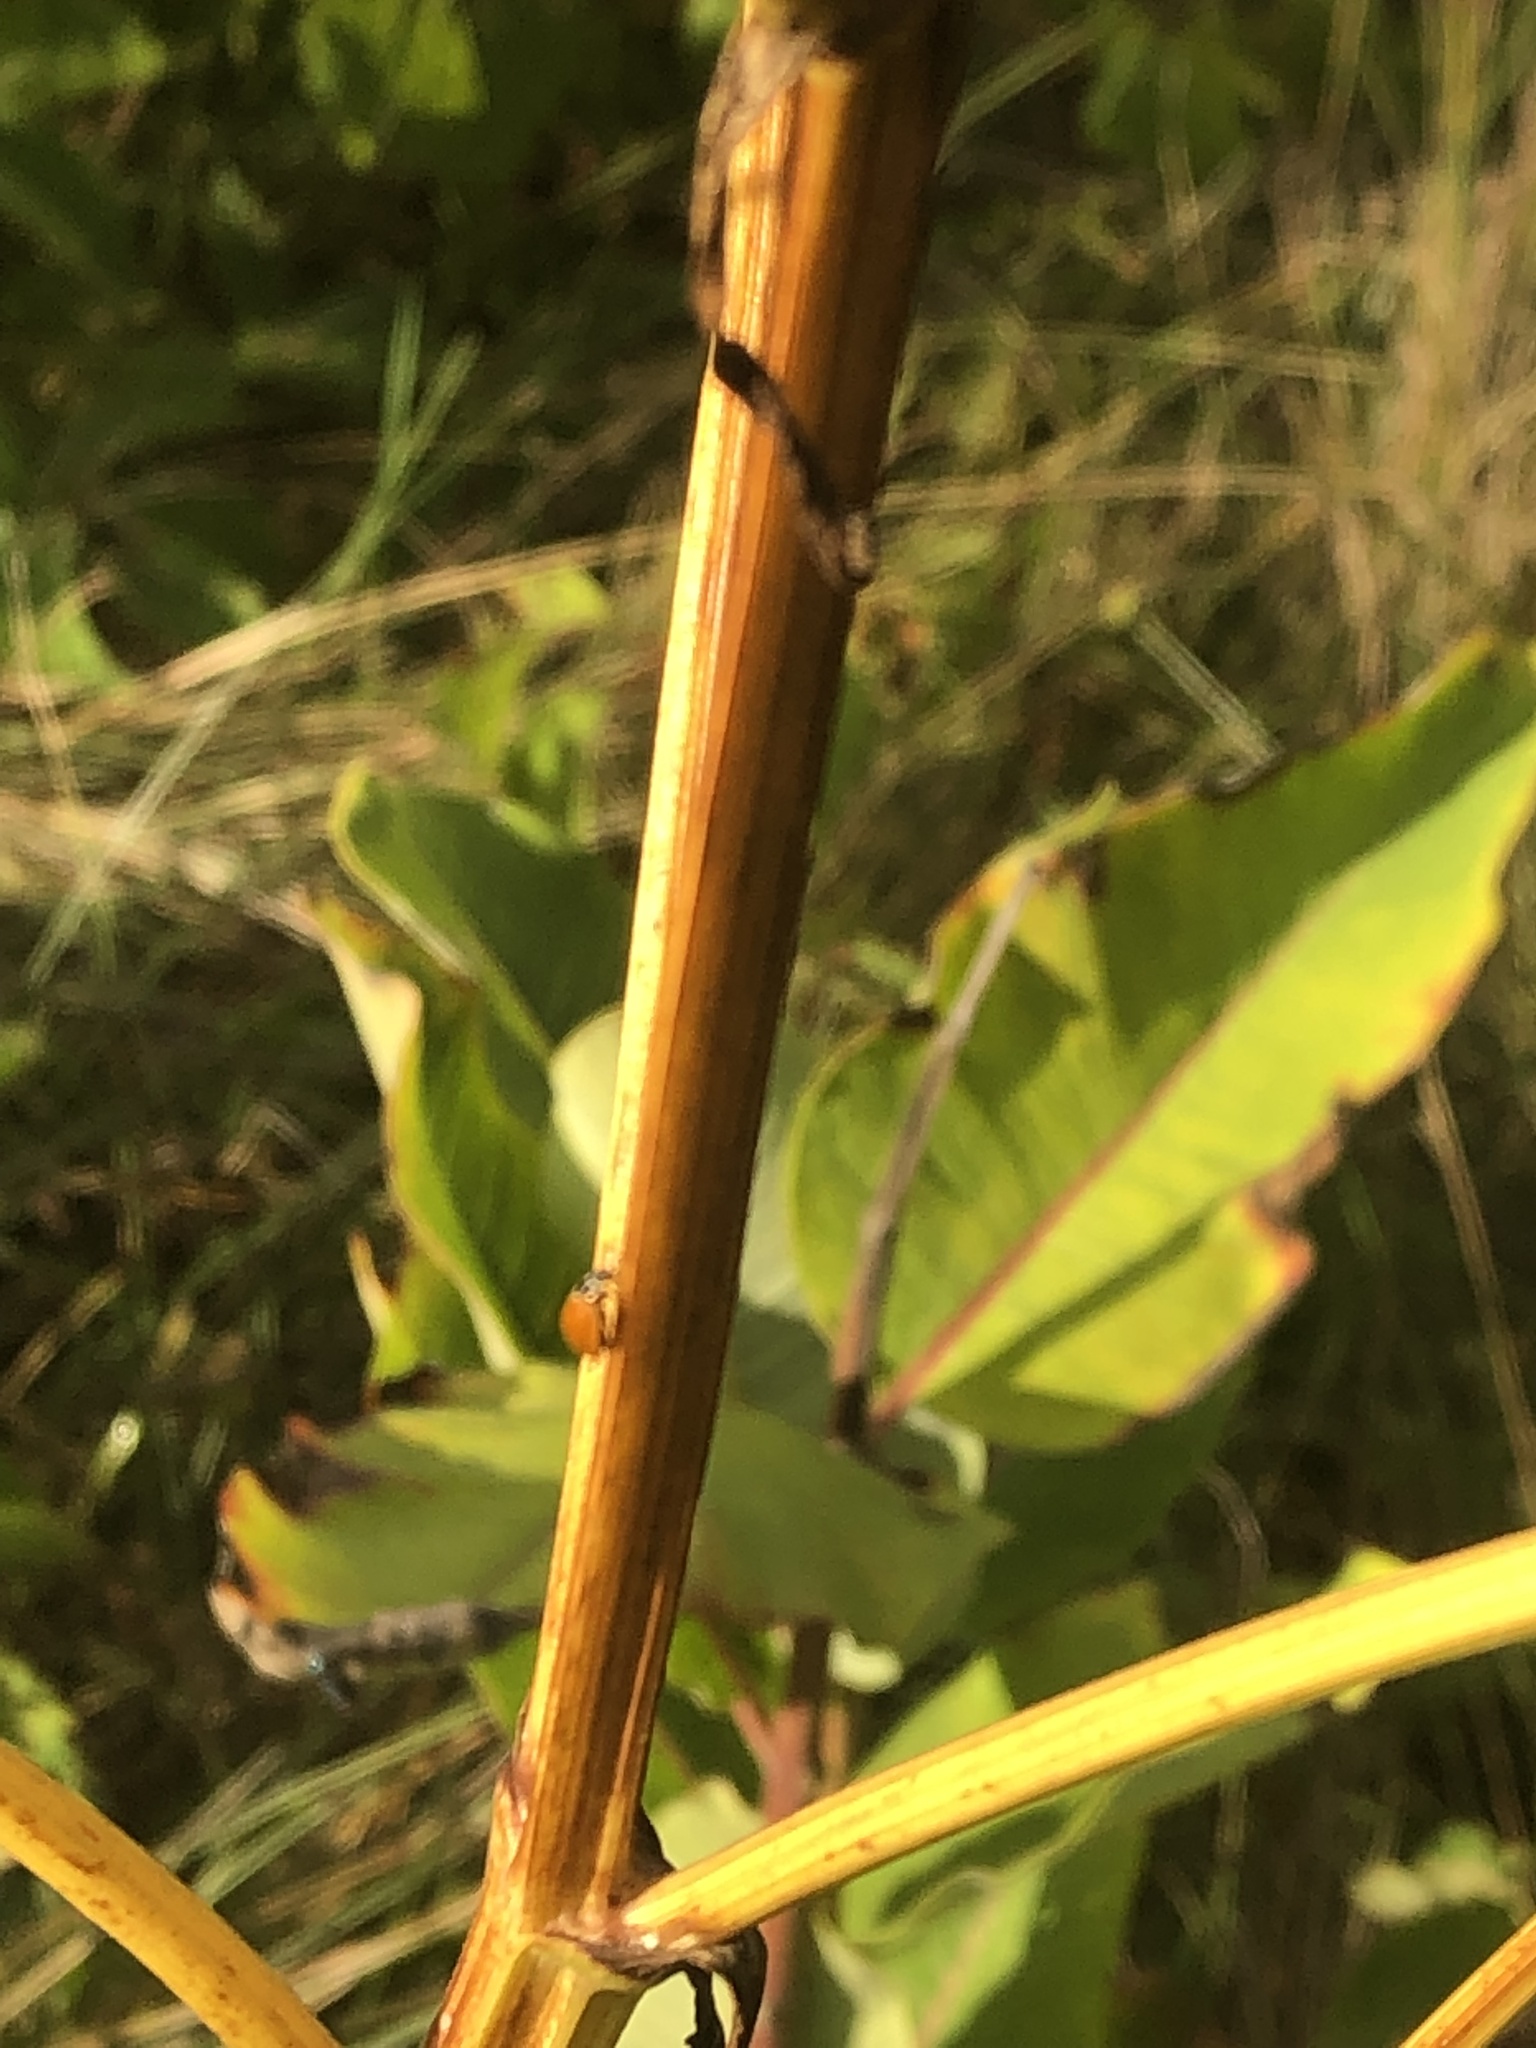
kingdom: Animalia
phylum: Arthropoda
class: Insecta
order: Coleoptera
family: Coccinellidae
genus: Cycloneda
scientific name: Cycloneda munda
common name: Polished lady beetle
